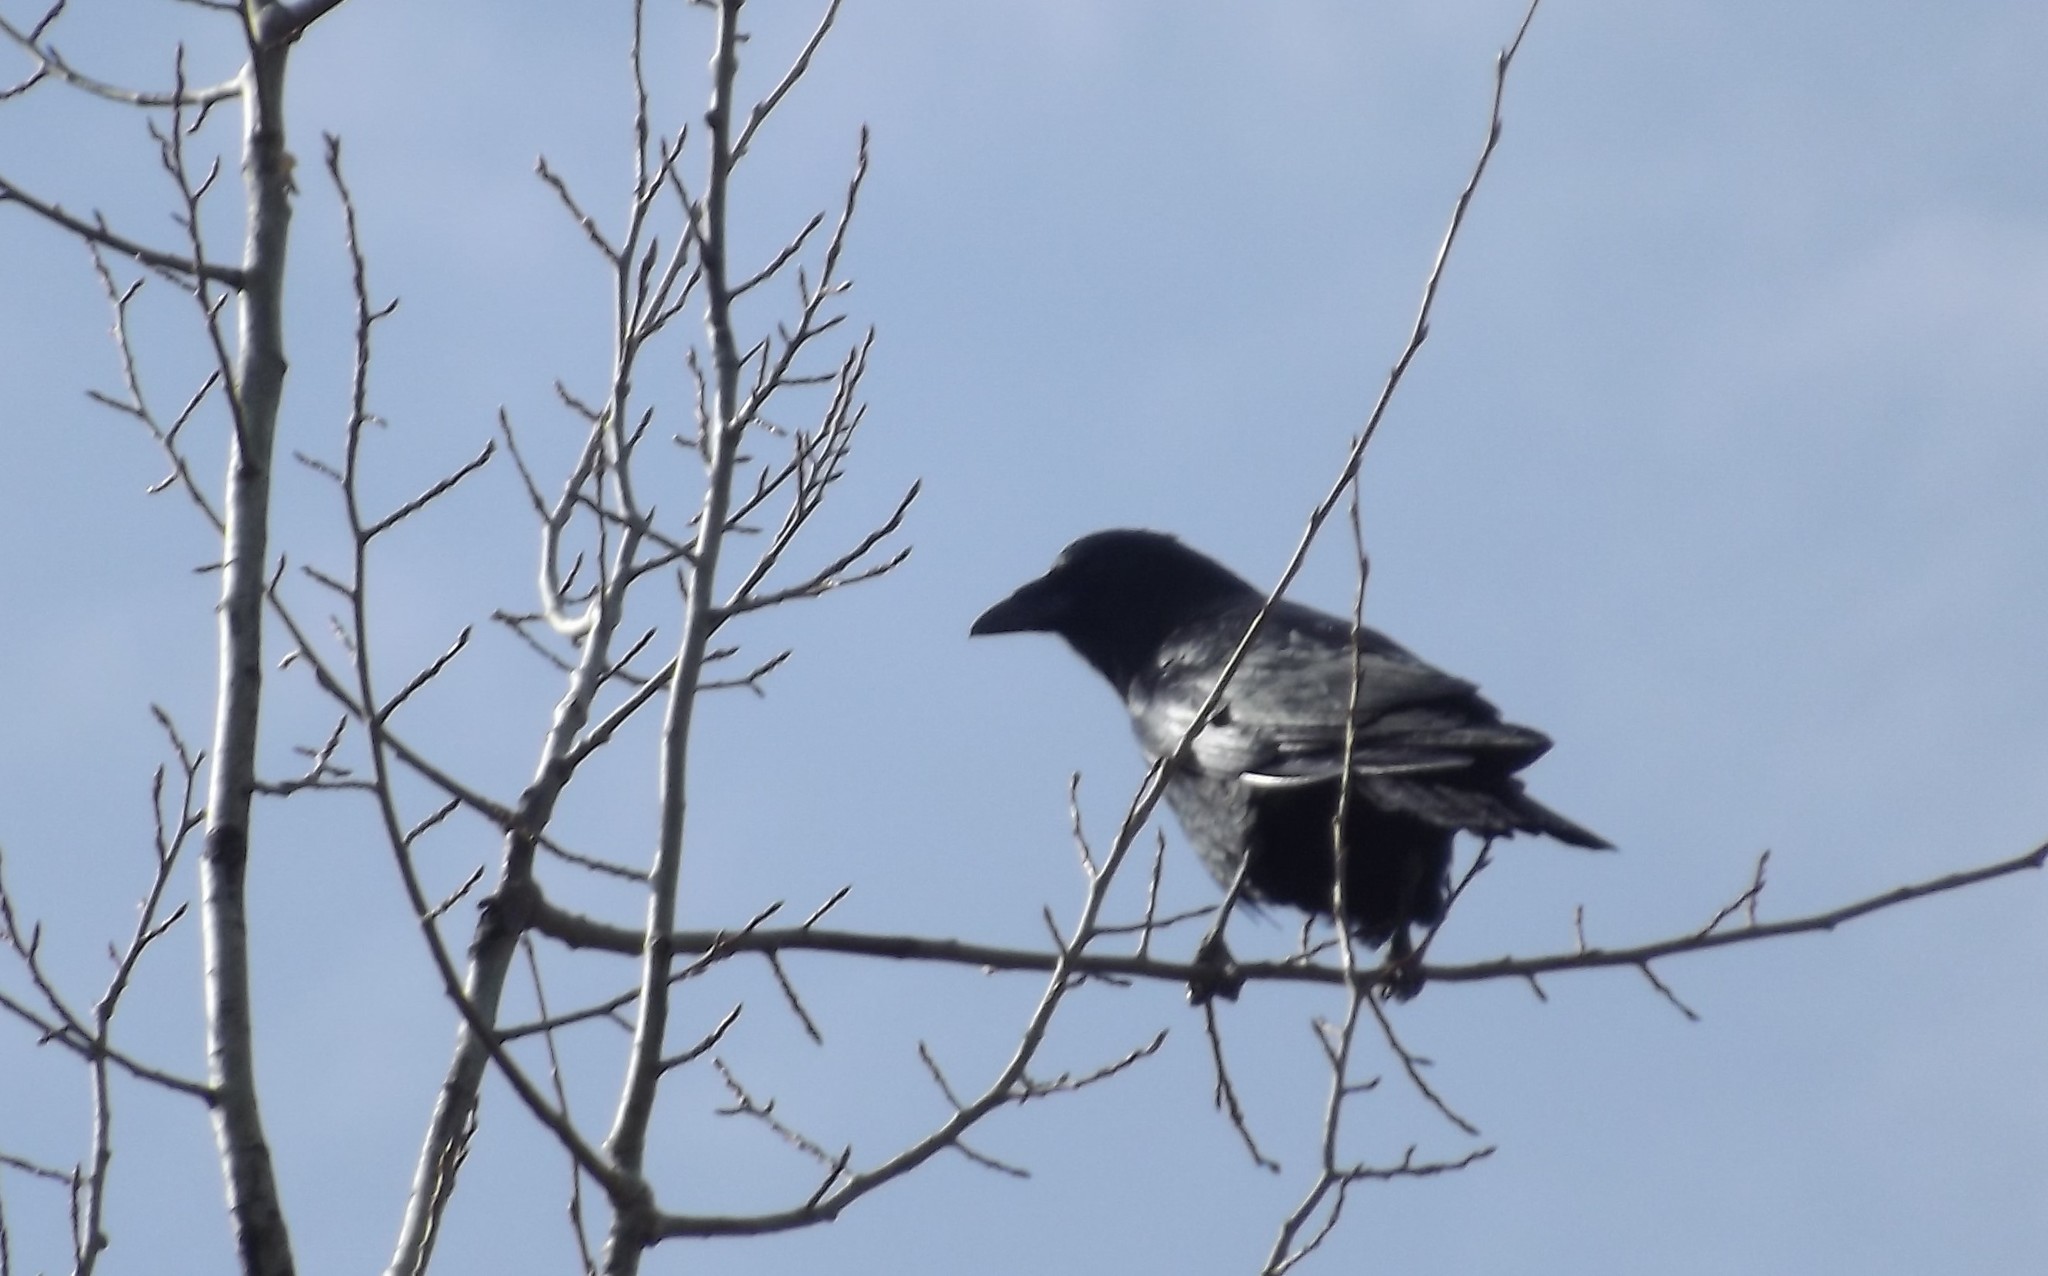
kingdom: Animalia
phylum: Chordata
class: Aves
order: Passeriformes
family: Corvidae
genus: Corvus
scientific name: Corvus brachyrhynchos
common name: American crow
